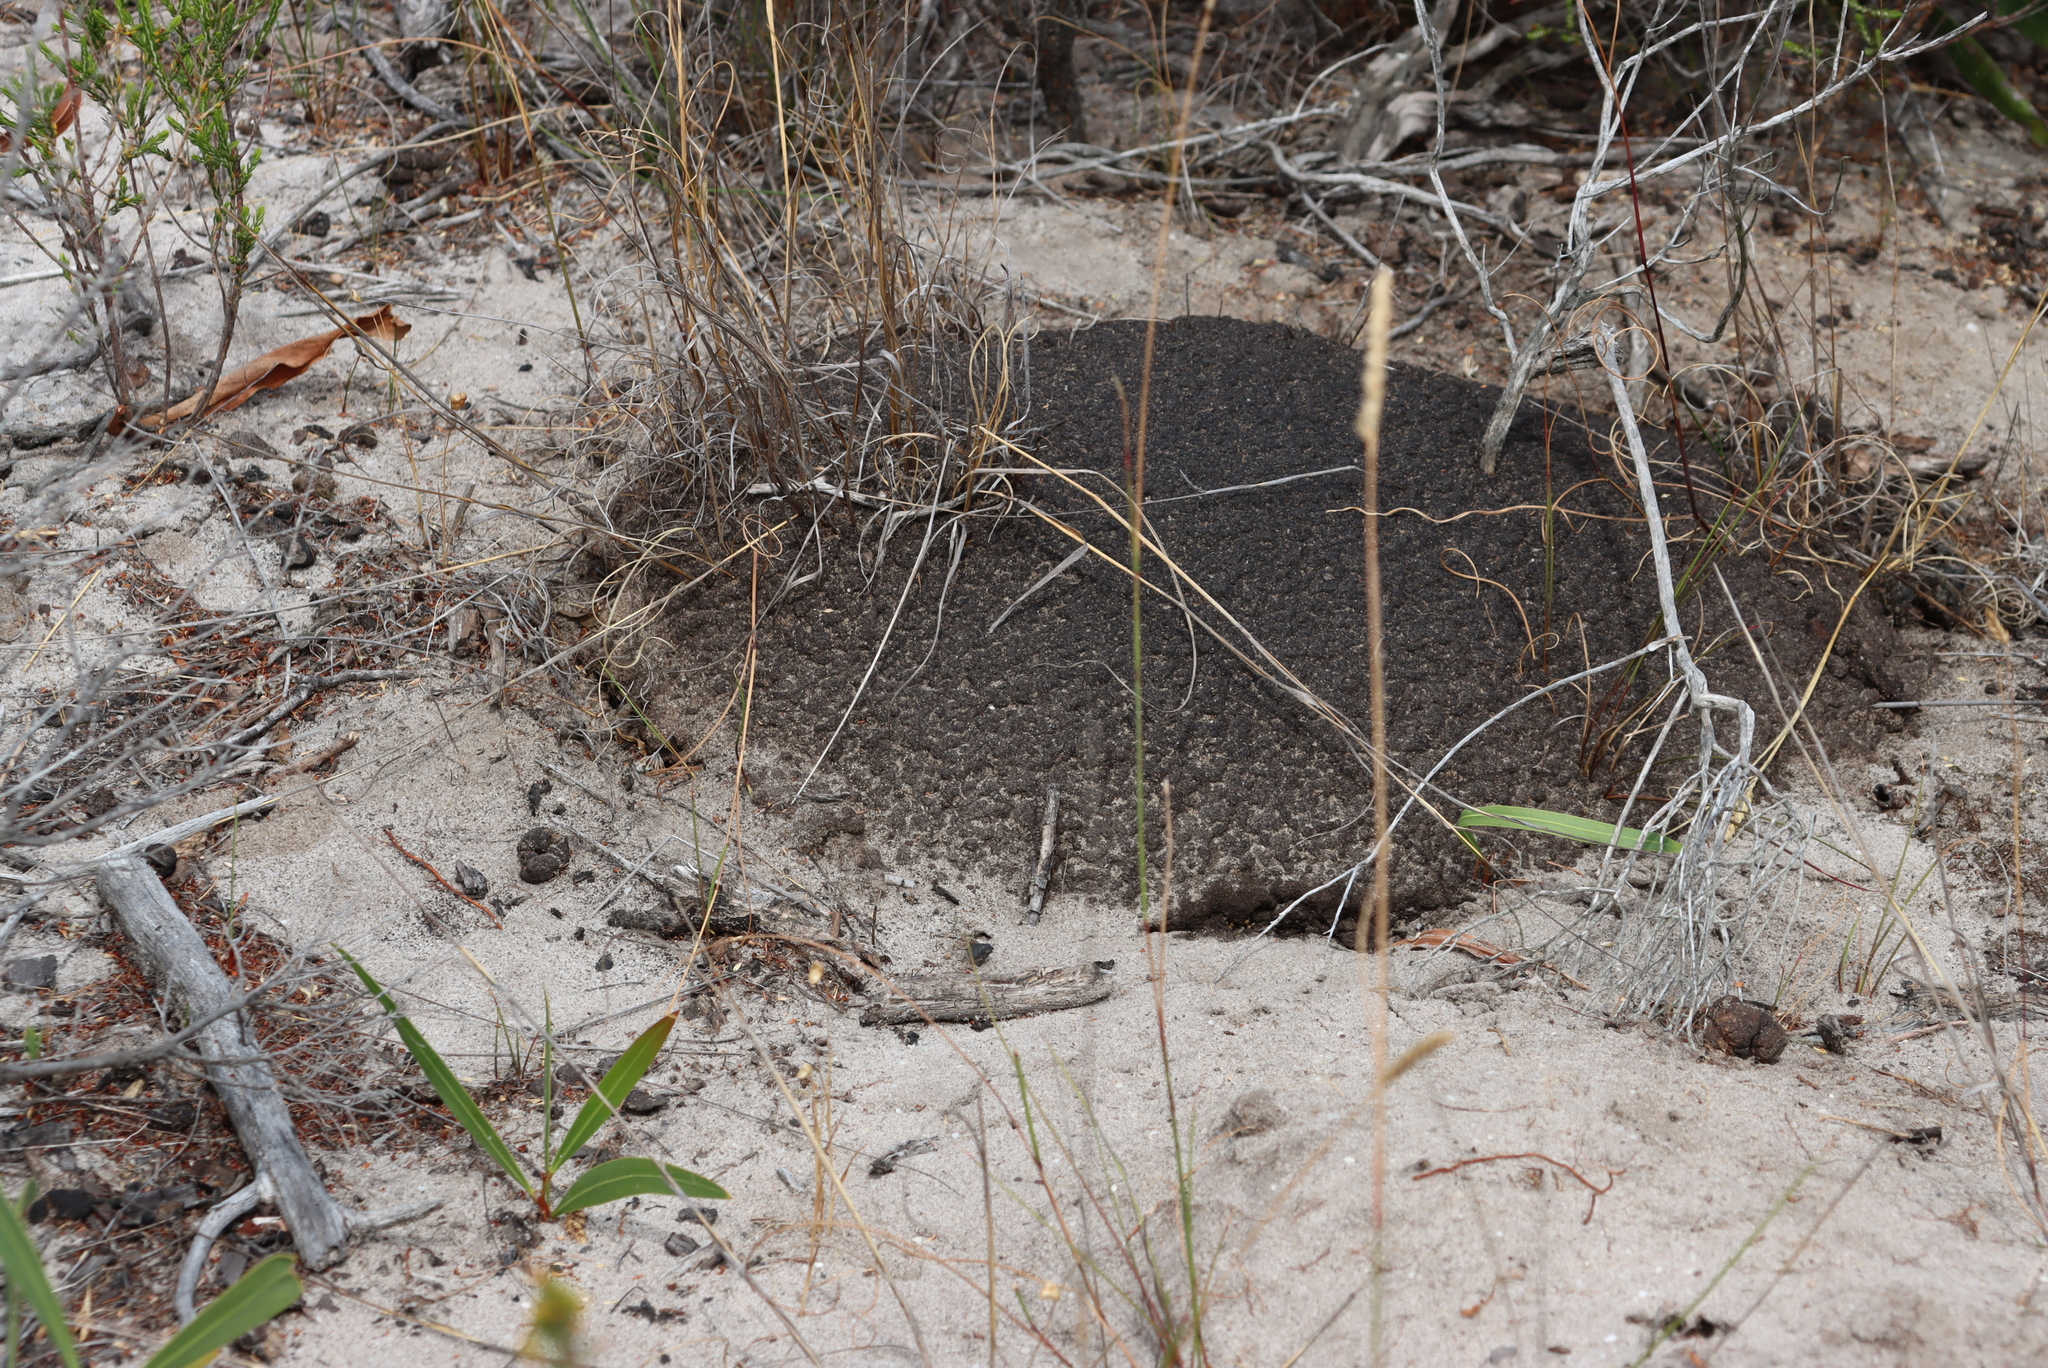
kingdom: Animalia
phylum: Arthropoda
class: Insecta
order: Blattodea
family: Termitidae
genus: Amitermes
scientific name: Amitermes hastatus
